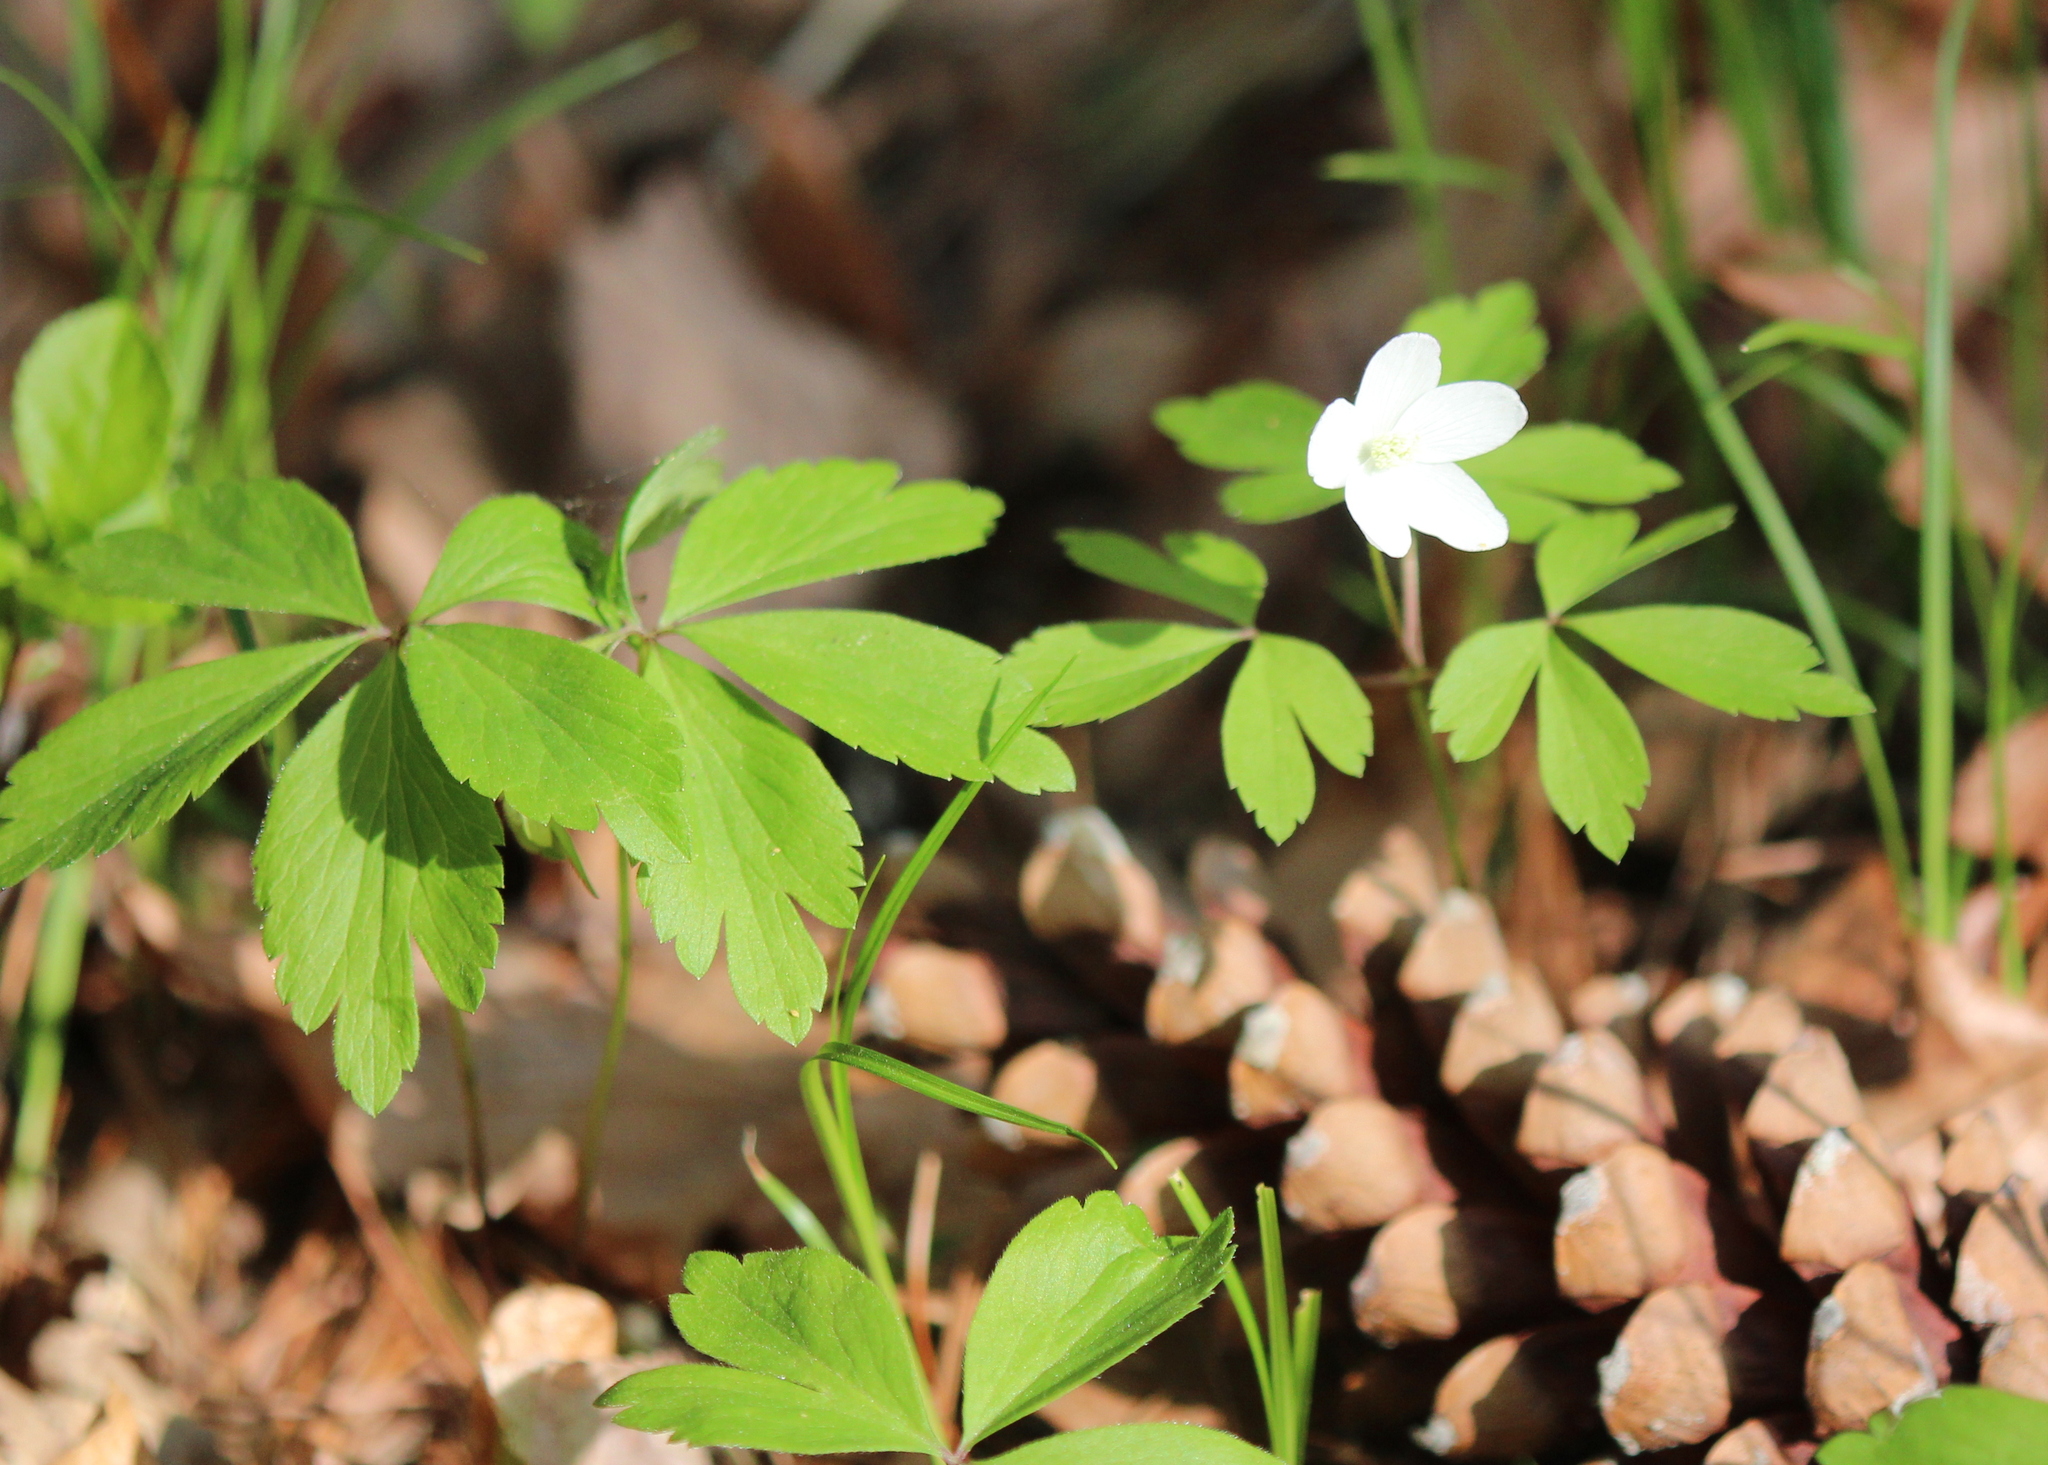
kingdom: Plantae
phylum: Tracheophyta
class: Magnoliopsida
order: Ranunculales
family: Ranunculaceae
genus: Anemone
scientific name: Anemone quinquefolia
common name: Wood anemone
